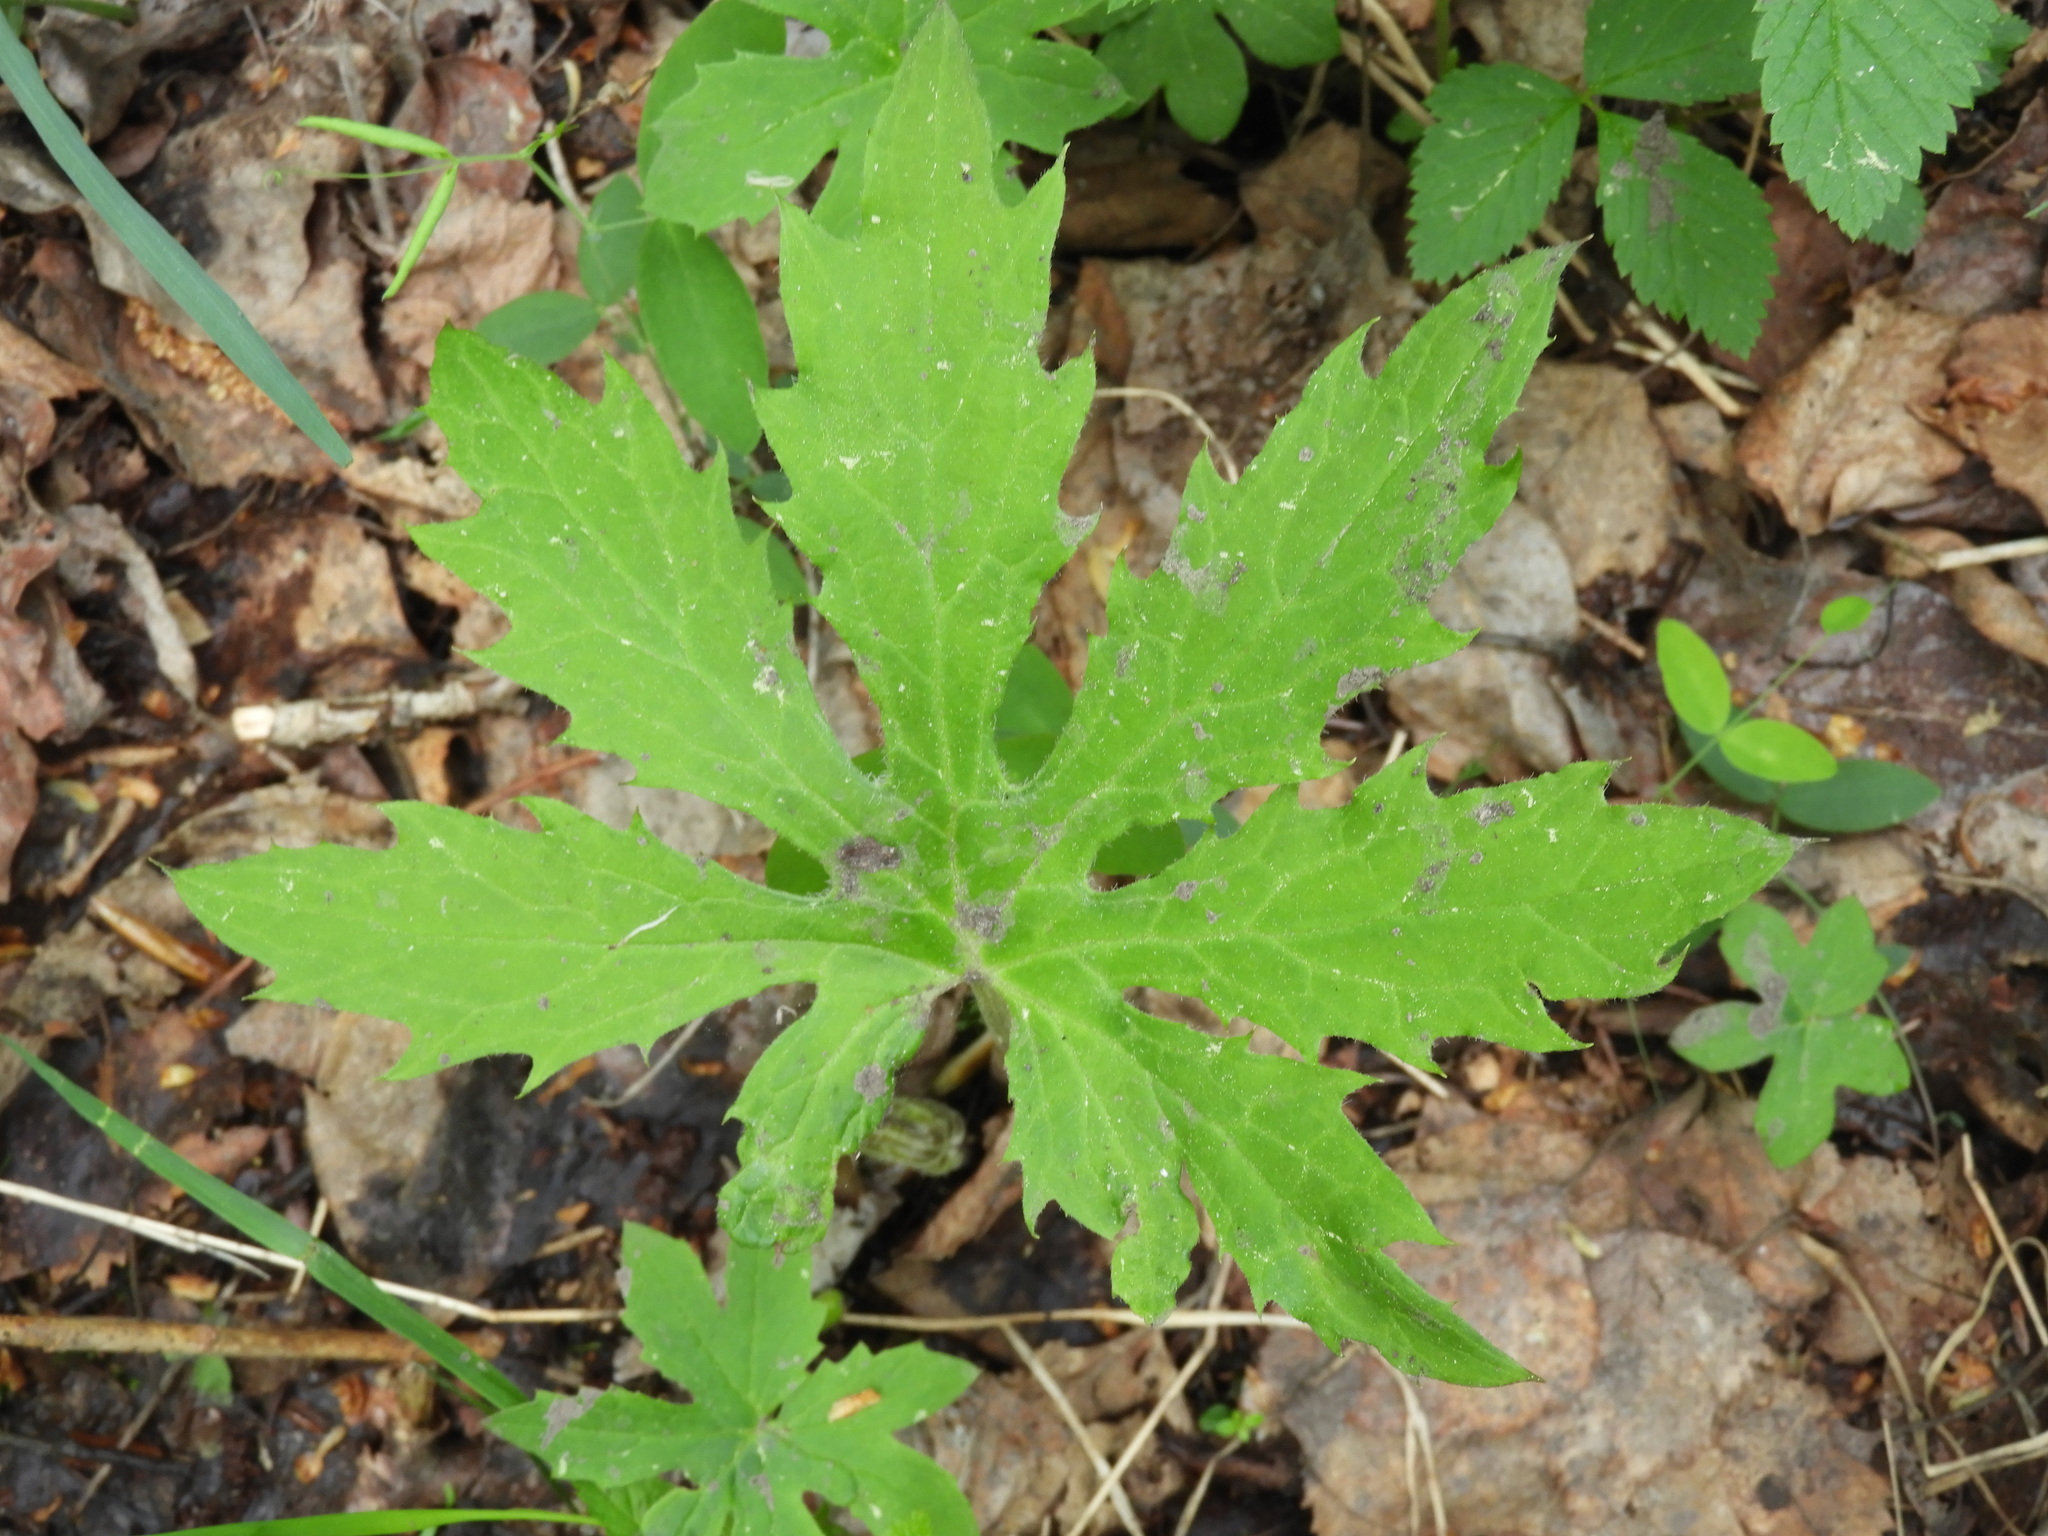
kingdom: Plantae
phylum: Tracheophyta
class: Magnoliopsida
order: Asterales
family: Asteraceae
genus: Petasites
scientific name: Petasites frigidus
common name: Arctic butterbur
